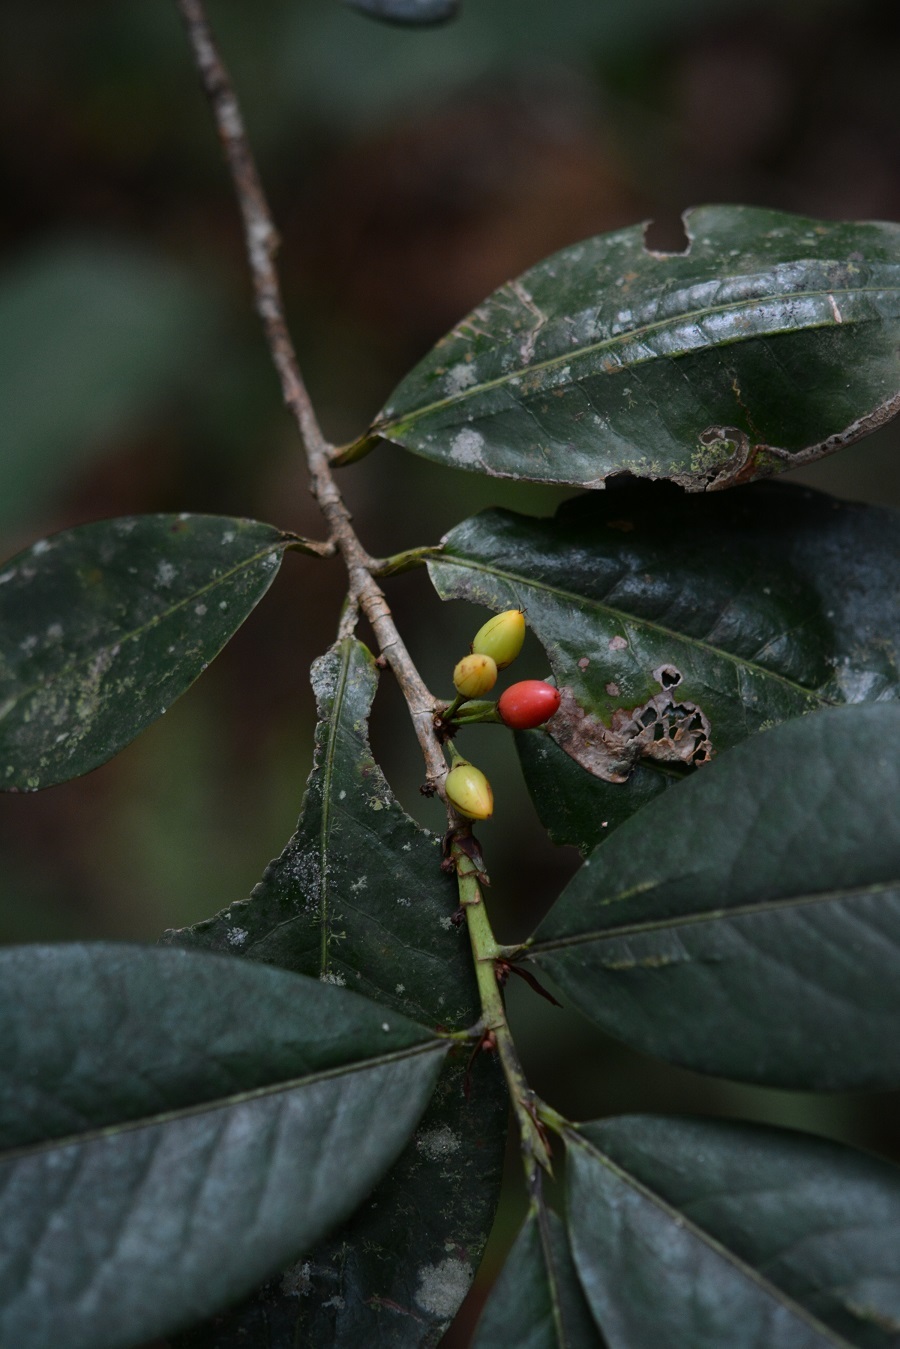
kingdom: Plantae
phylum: Tracheophyta
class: Magnoliopsida
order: Malpighiales
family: Erythroxylaceae
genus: Erythroxylum
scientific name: Erythroxylum macrophyllum
